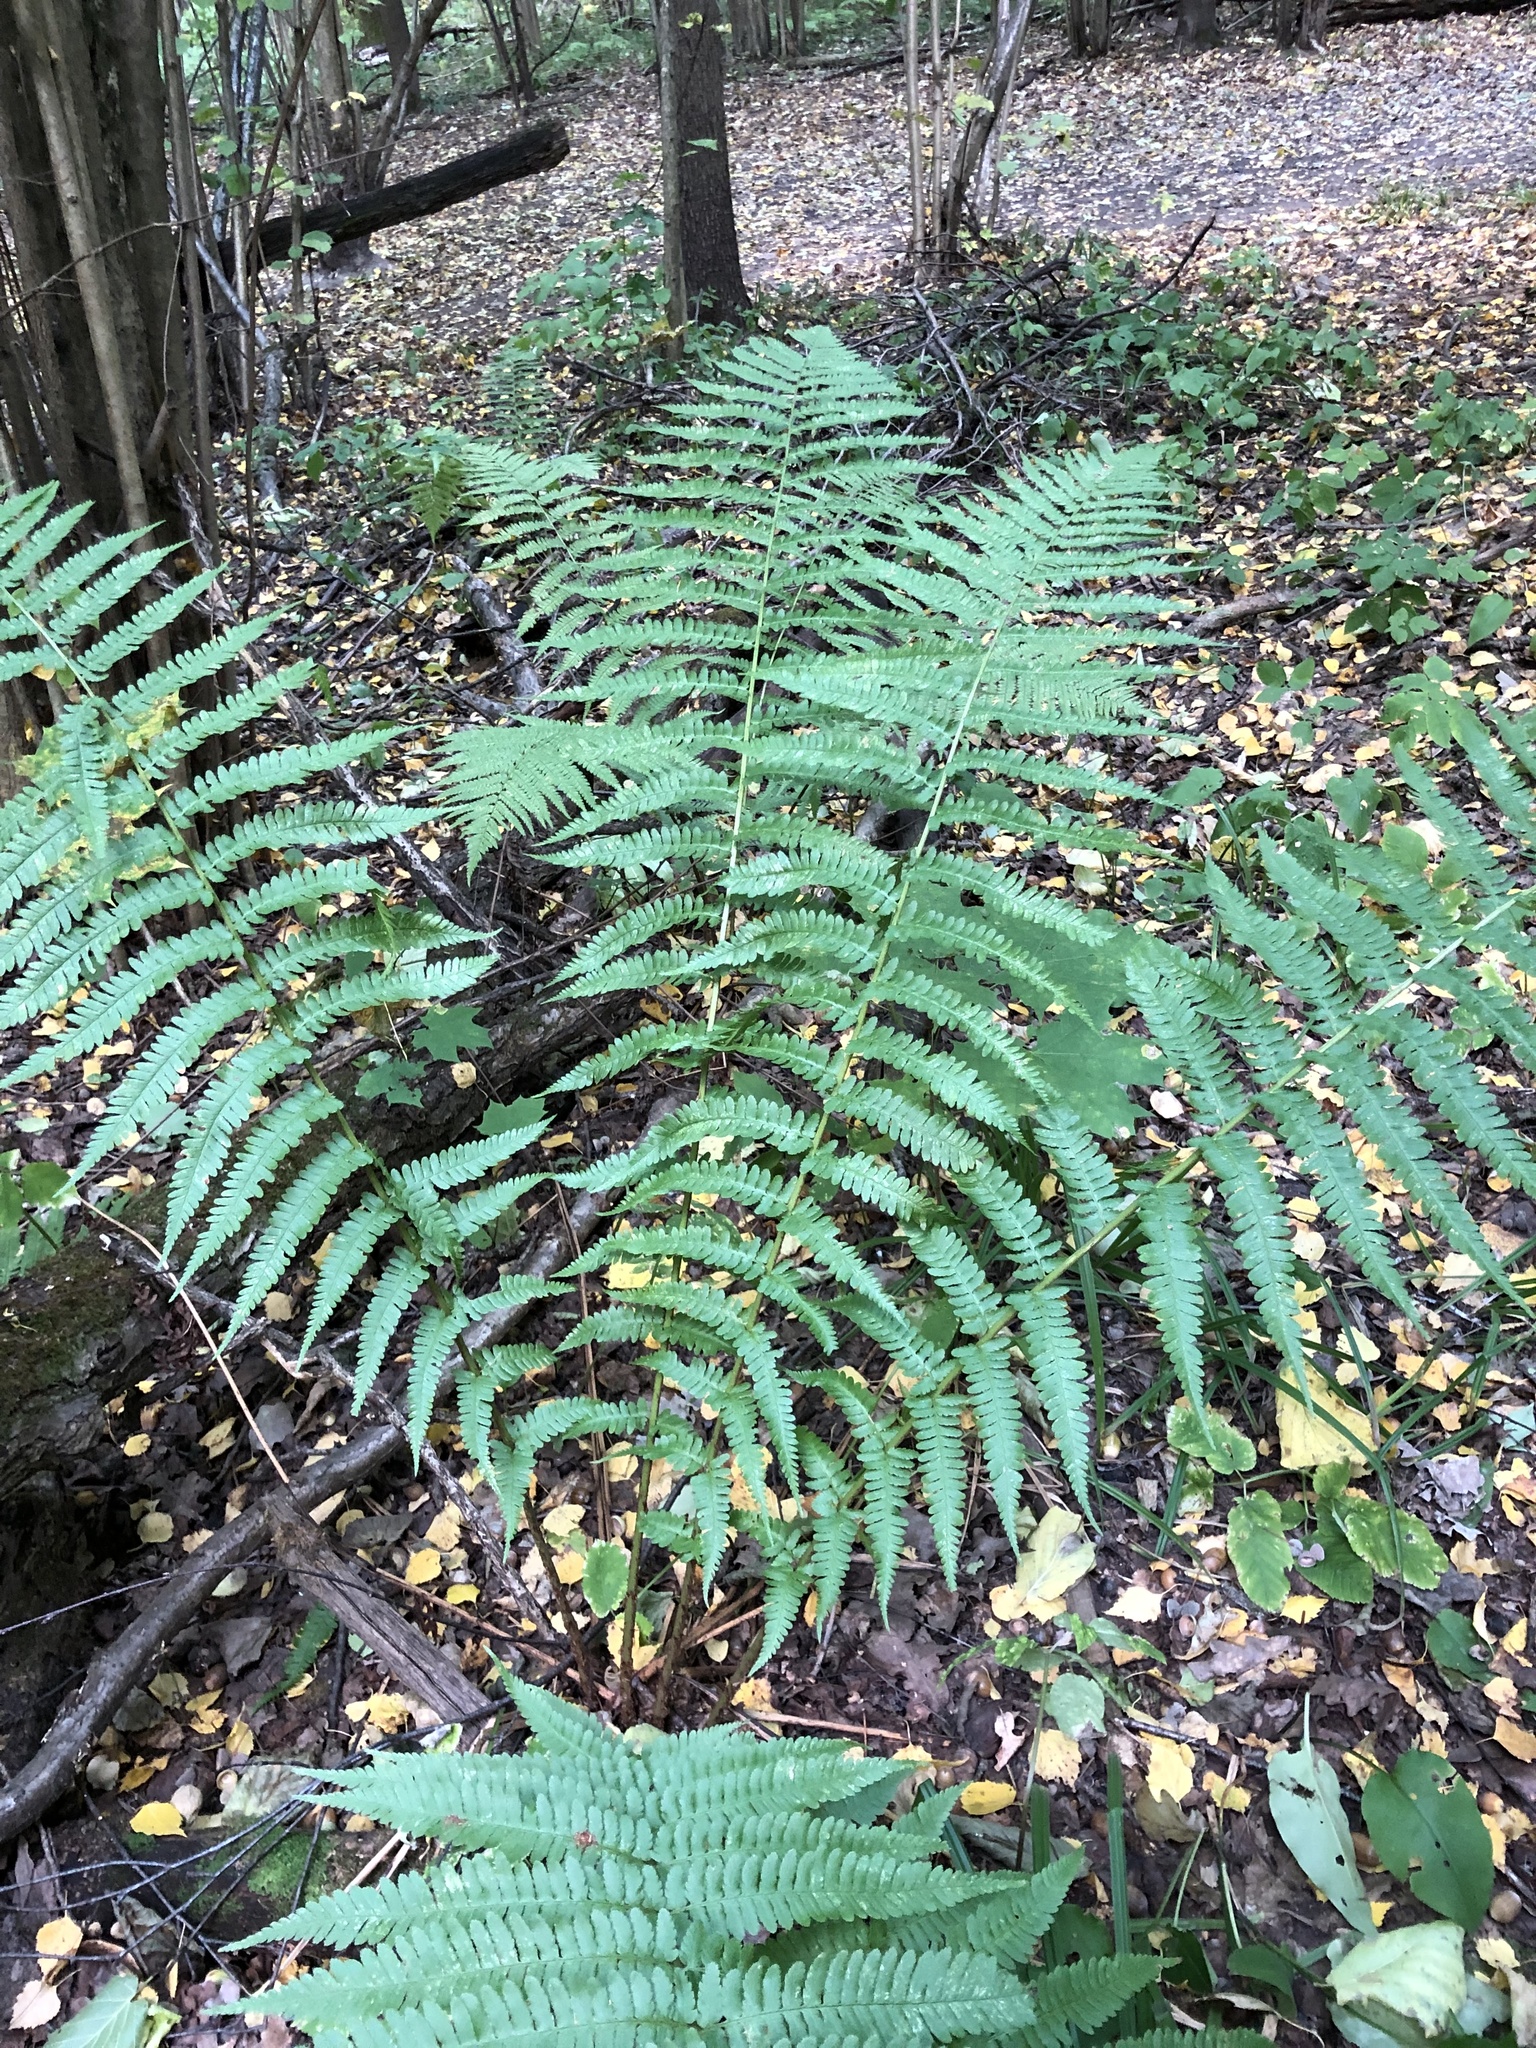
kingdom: Plantae
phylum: Tracheophyta
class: Polypodiopsida
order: Polypodiales
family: Dryopteridaceae
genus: Dryopteris
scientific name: Dryopteris filix-mas
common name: Male fern
